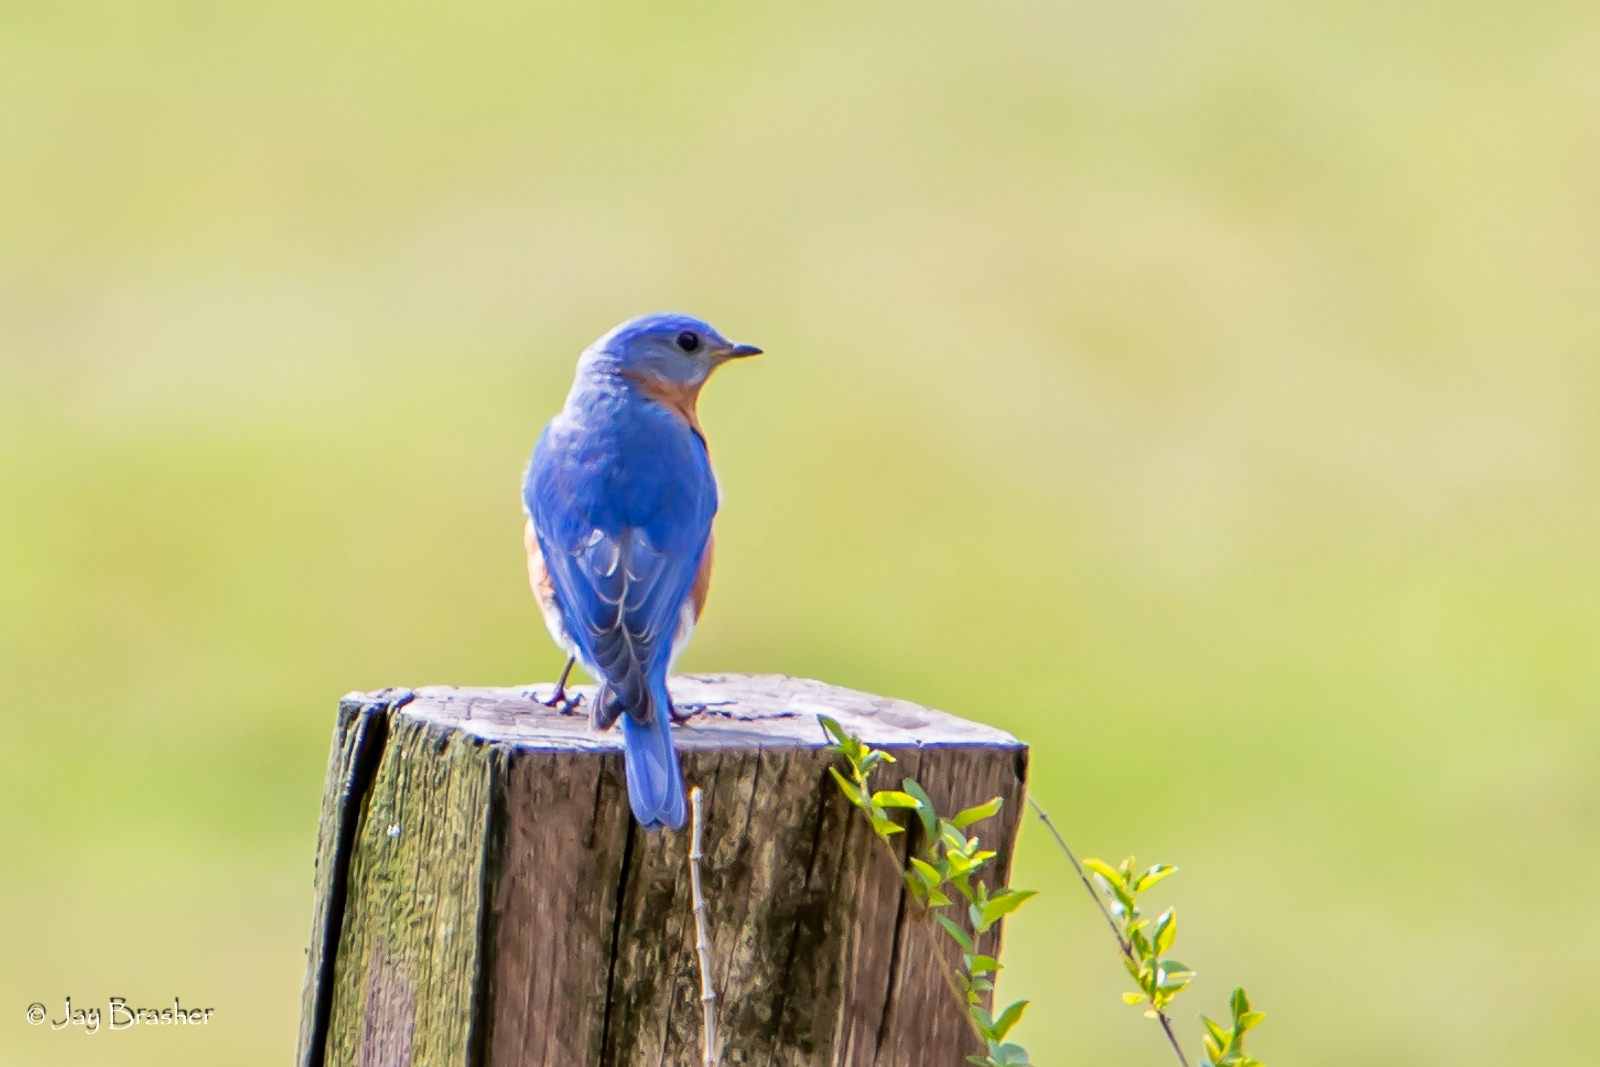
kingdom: Animalia
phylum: Chordata
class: Aves
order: Passeriformes
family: Turdidae
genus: Sialia
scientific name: Sialia sialis
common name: Eastern bluebird
